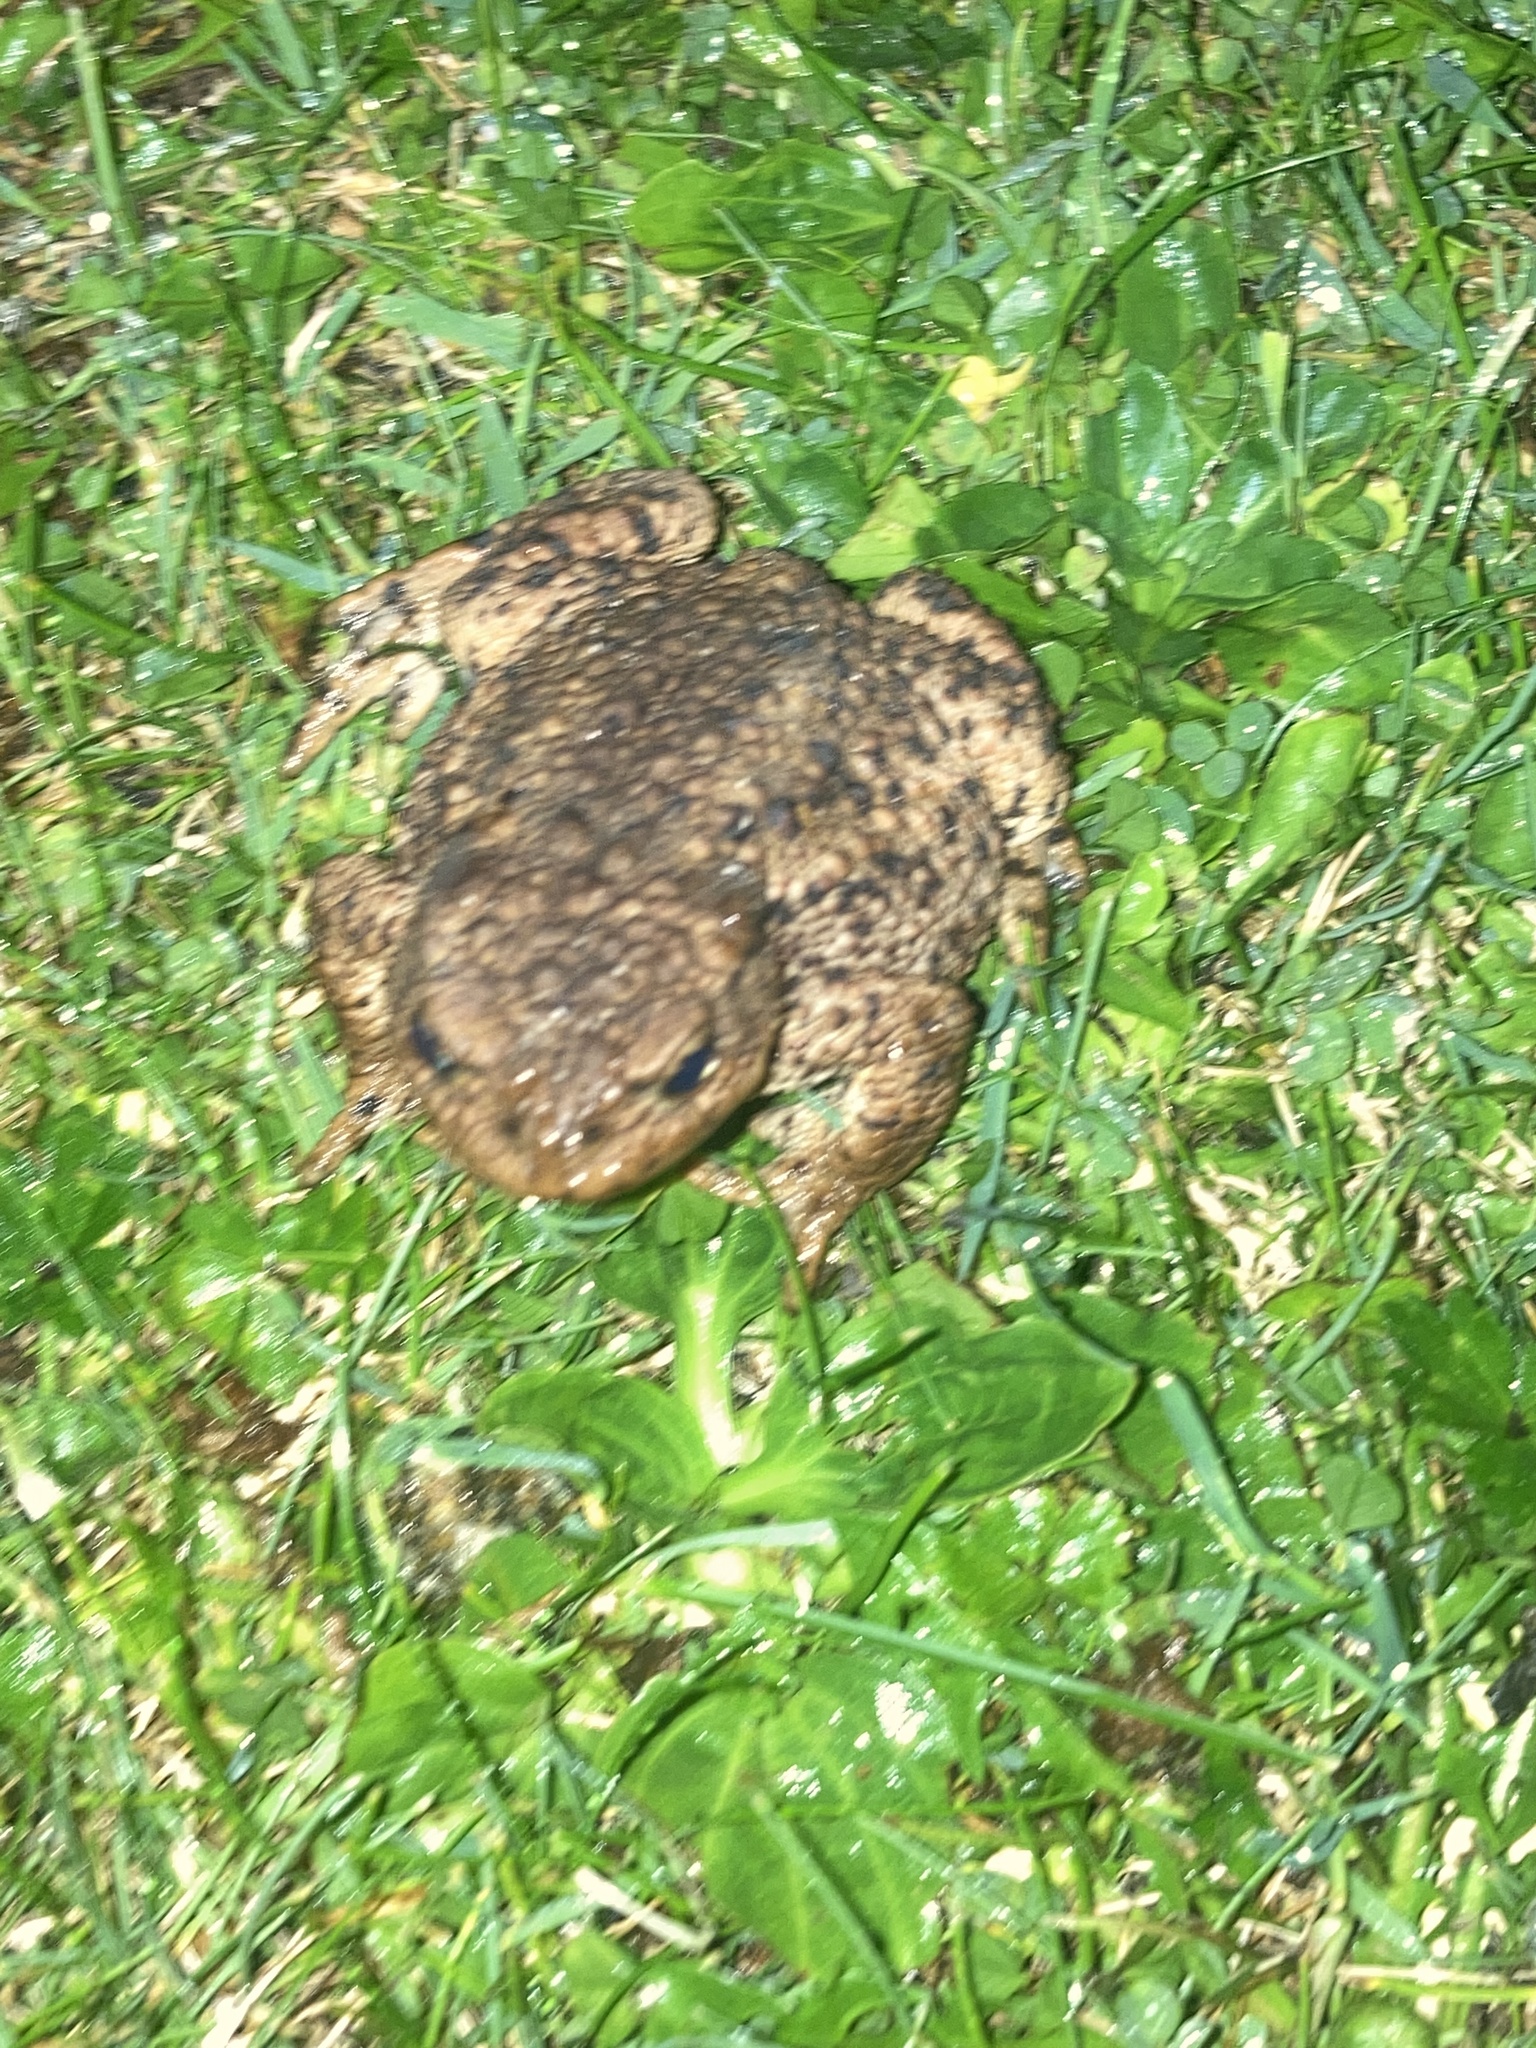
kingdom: Animalia
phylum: Chordata
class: Amphibia
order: Anura
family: Bufonidae
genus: Bufo
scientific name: Bufo bufo
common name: Common toad
